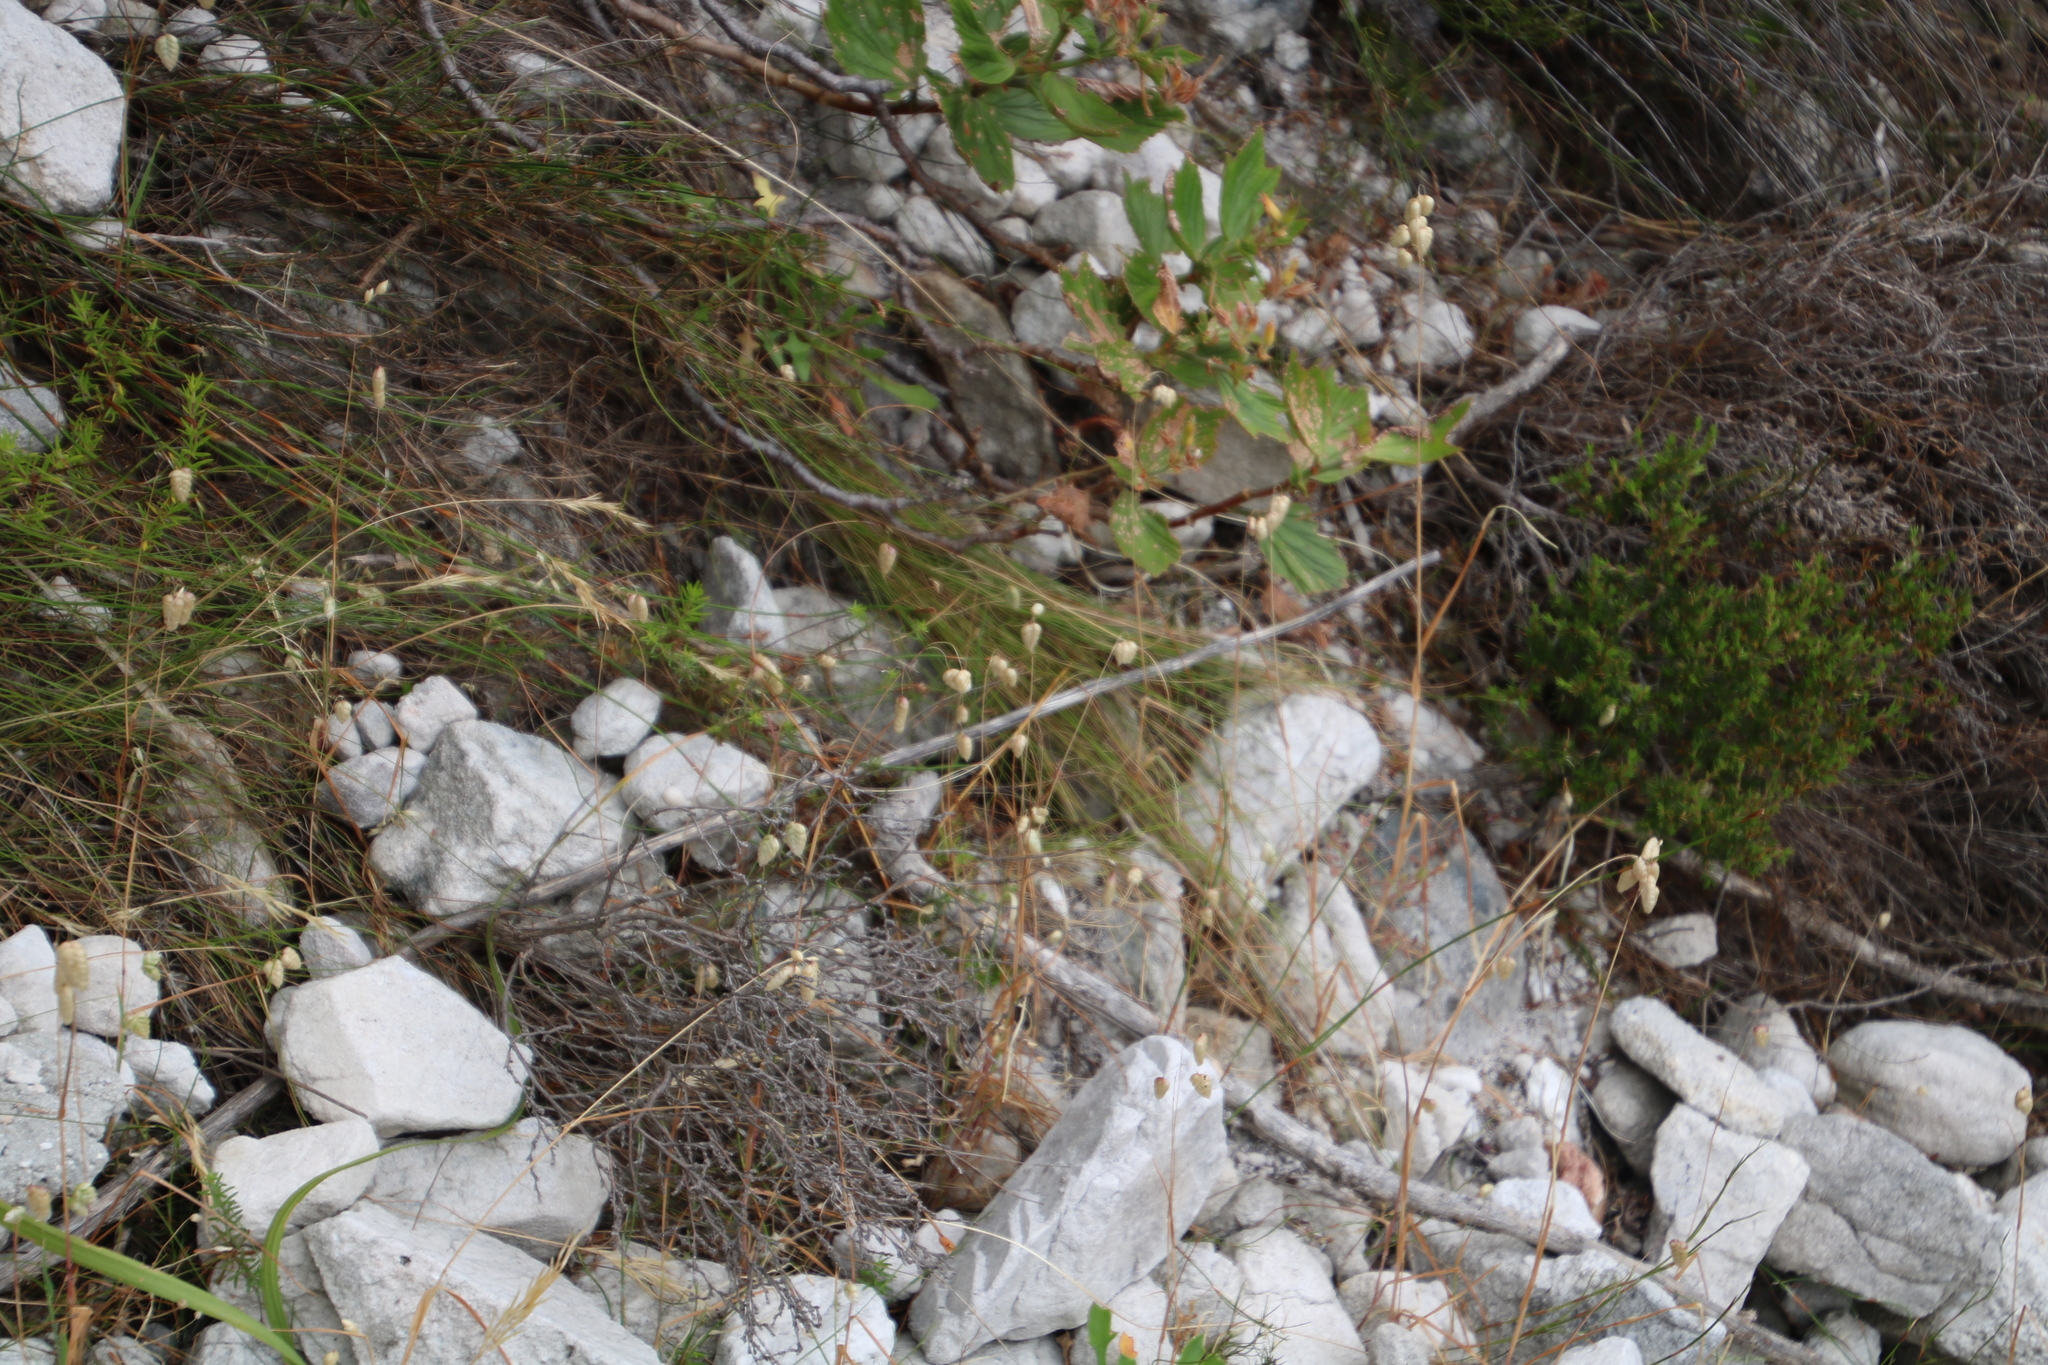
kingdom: Plantae
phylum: Tracheophyta
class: Liliopsida
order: Poales
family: Poaceae
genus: Briza
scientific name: Briza maxima
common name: Big quakinggrass
